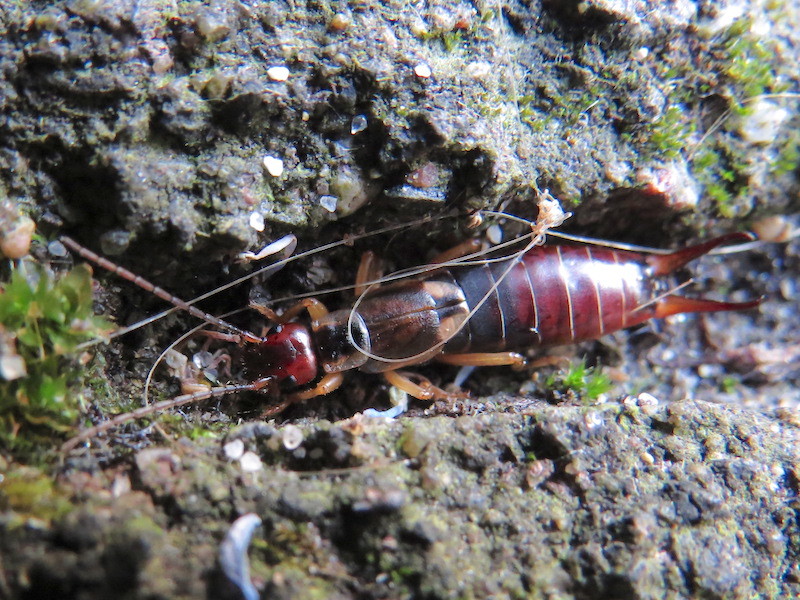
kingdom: Animalia
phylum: Arthropoda
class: Insecta
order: Dermaptera
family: Forficulidae
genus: Forficula
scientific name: Forficula
